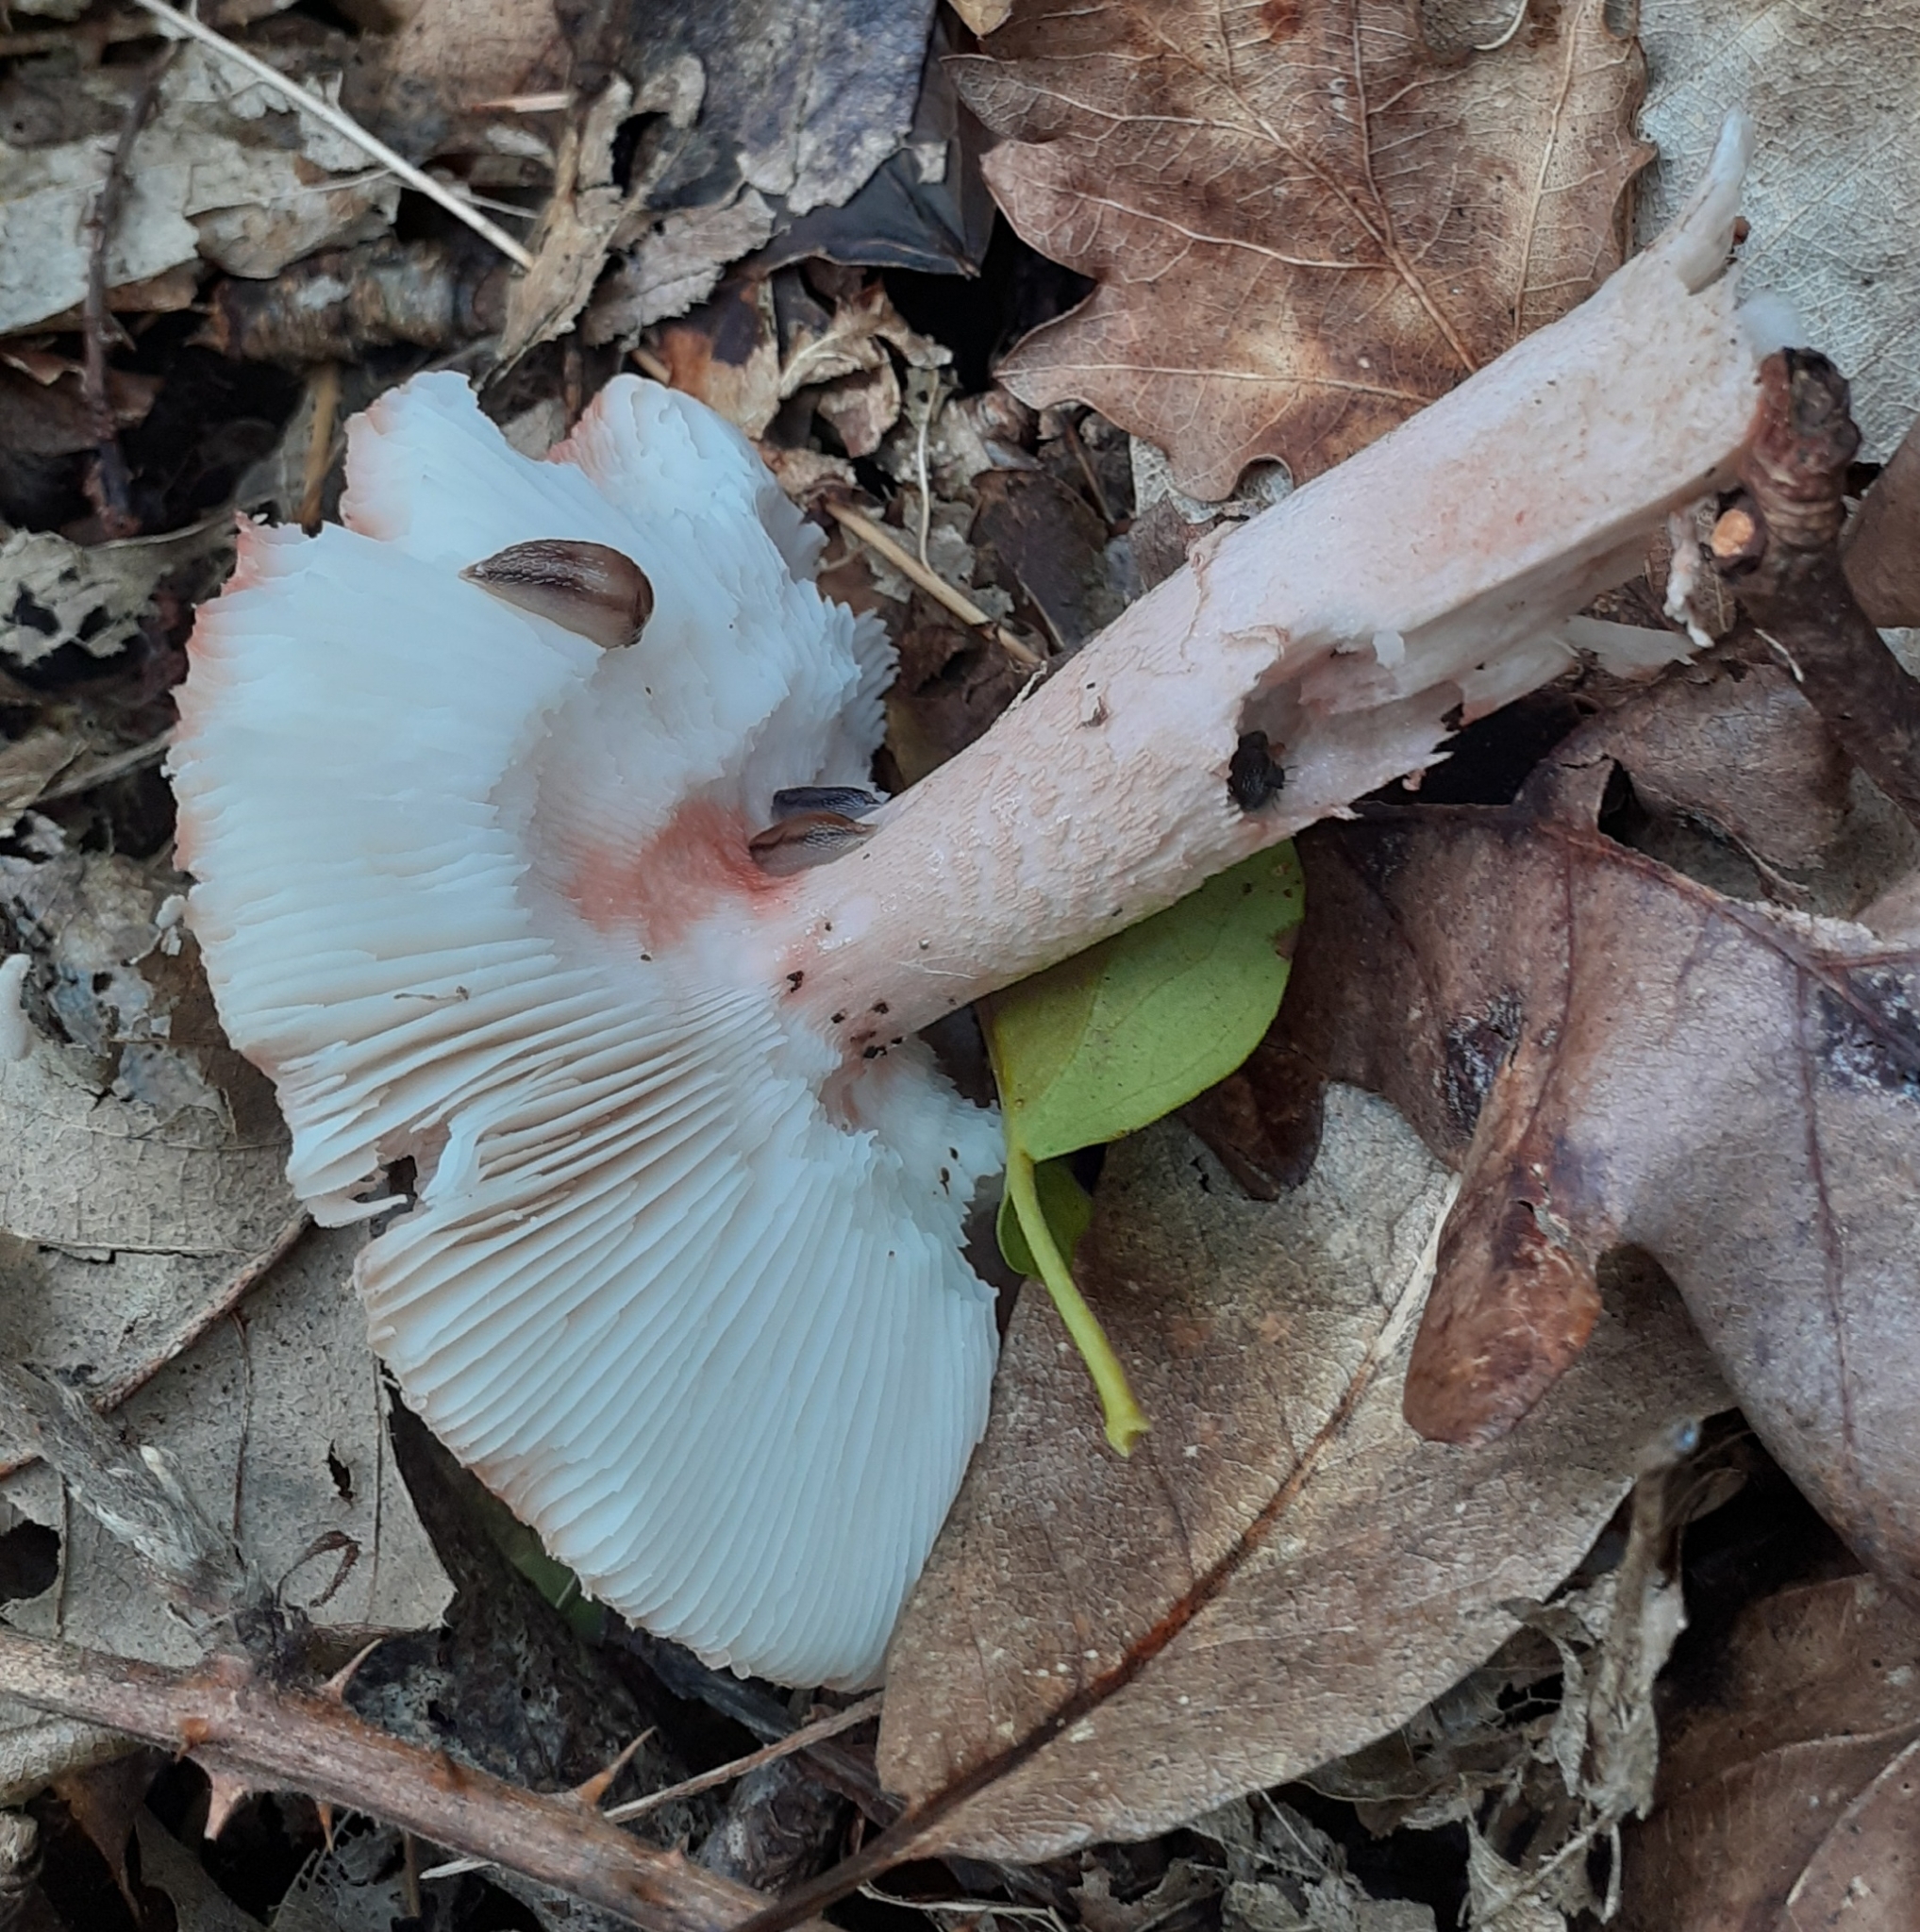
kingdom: Fungi
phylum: Basidiomycota
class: Agaricomycetes
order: Agaricales
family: Amanitaceae
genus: Amanita
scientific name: Amanita rubescens
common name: Blusher
